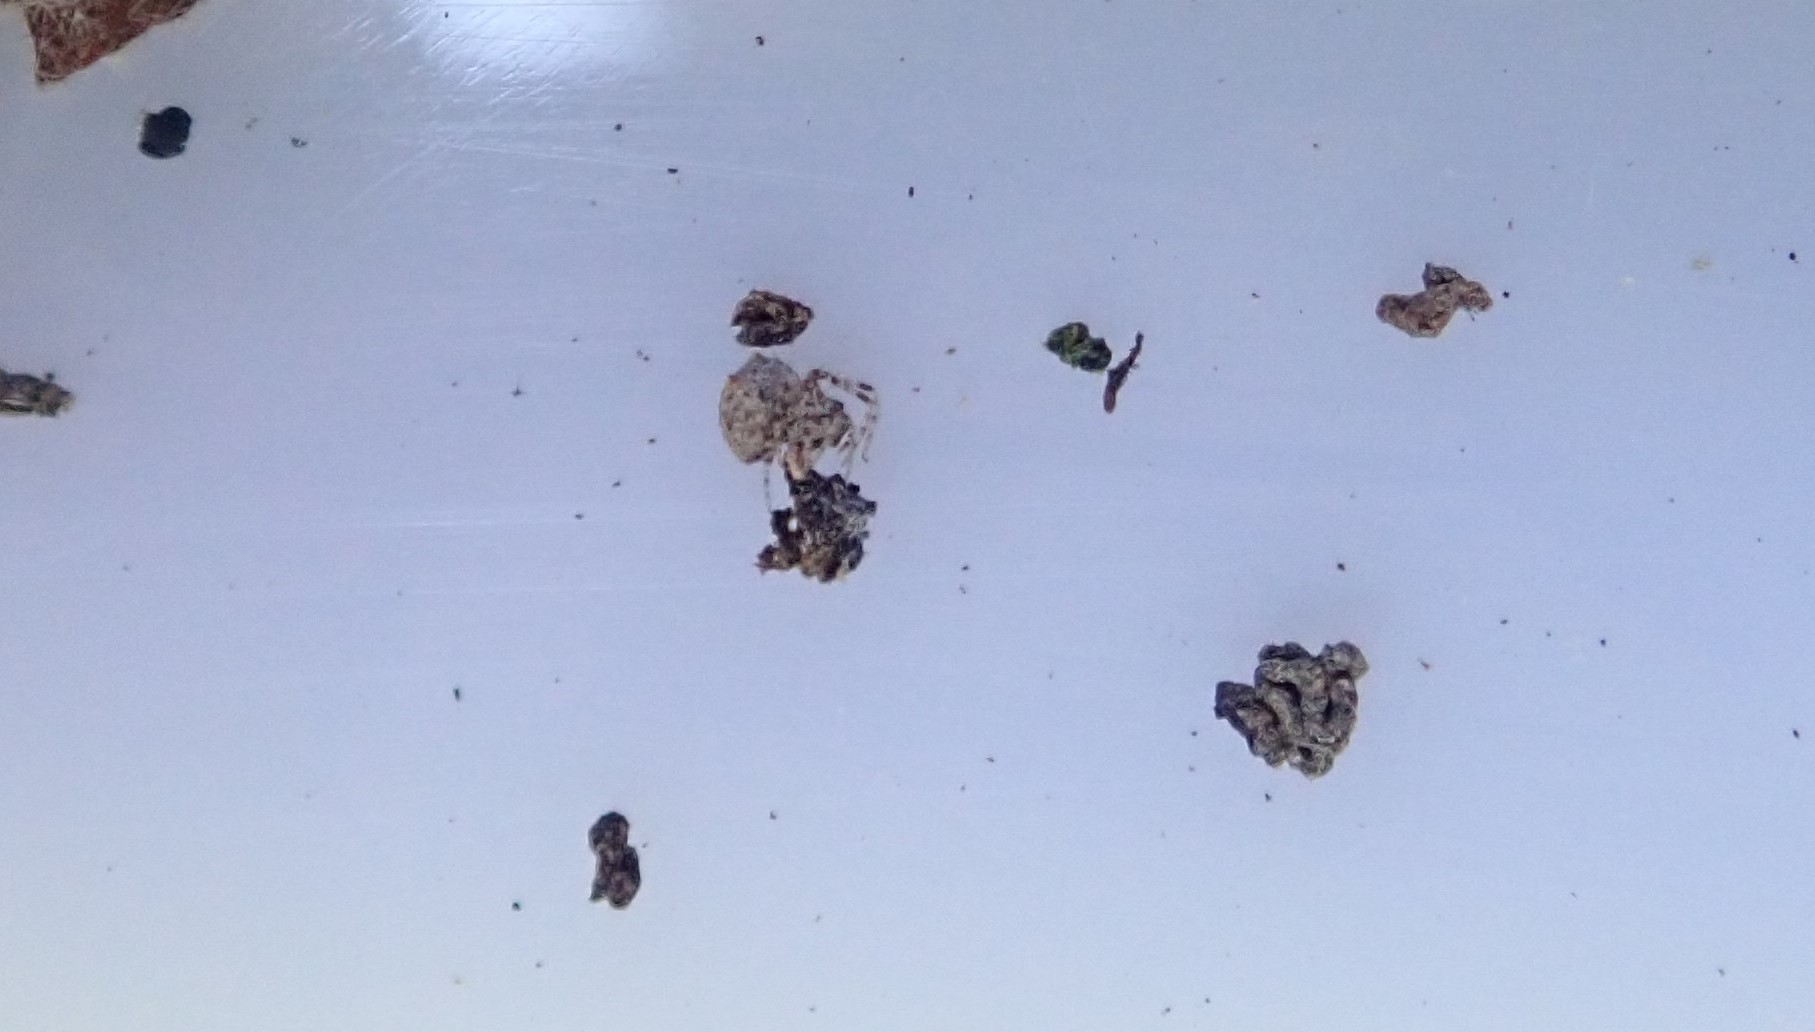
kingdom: Animalia
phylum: Arthropoda
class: Arachnida
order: Araneae
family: Mimetidae
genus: Ero
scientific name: Ero
